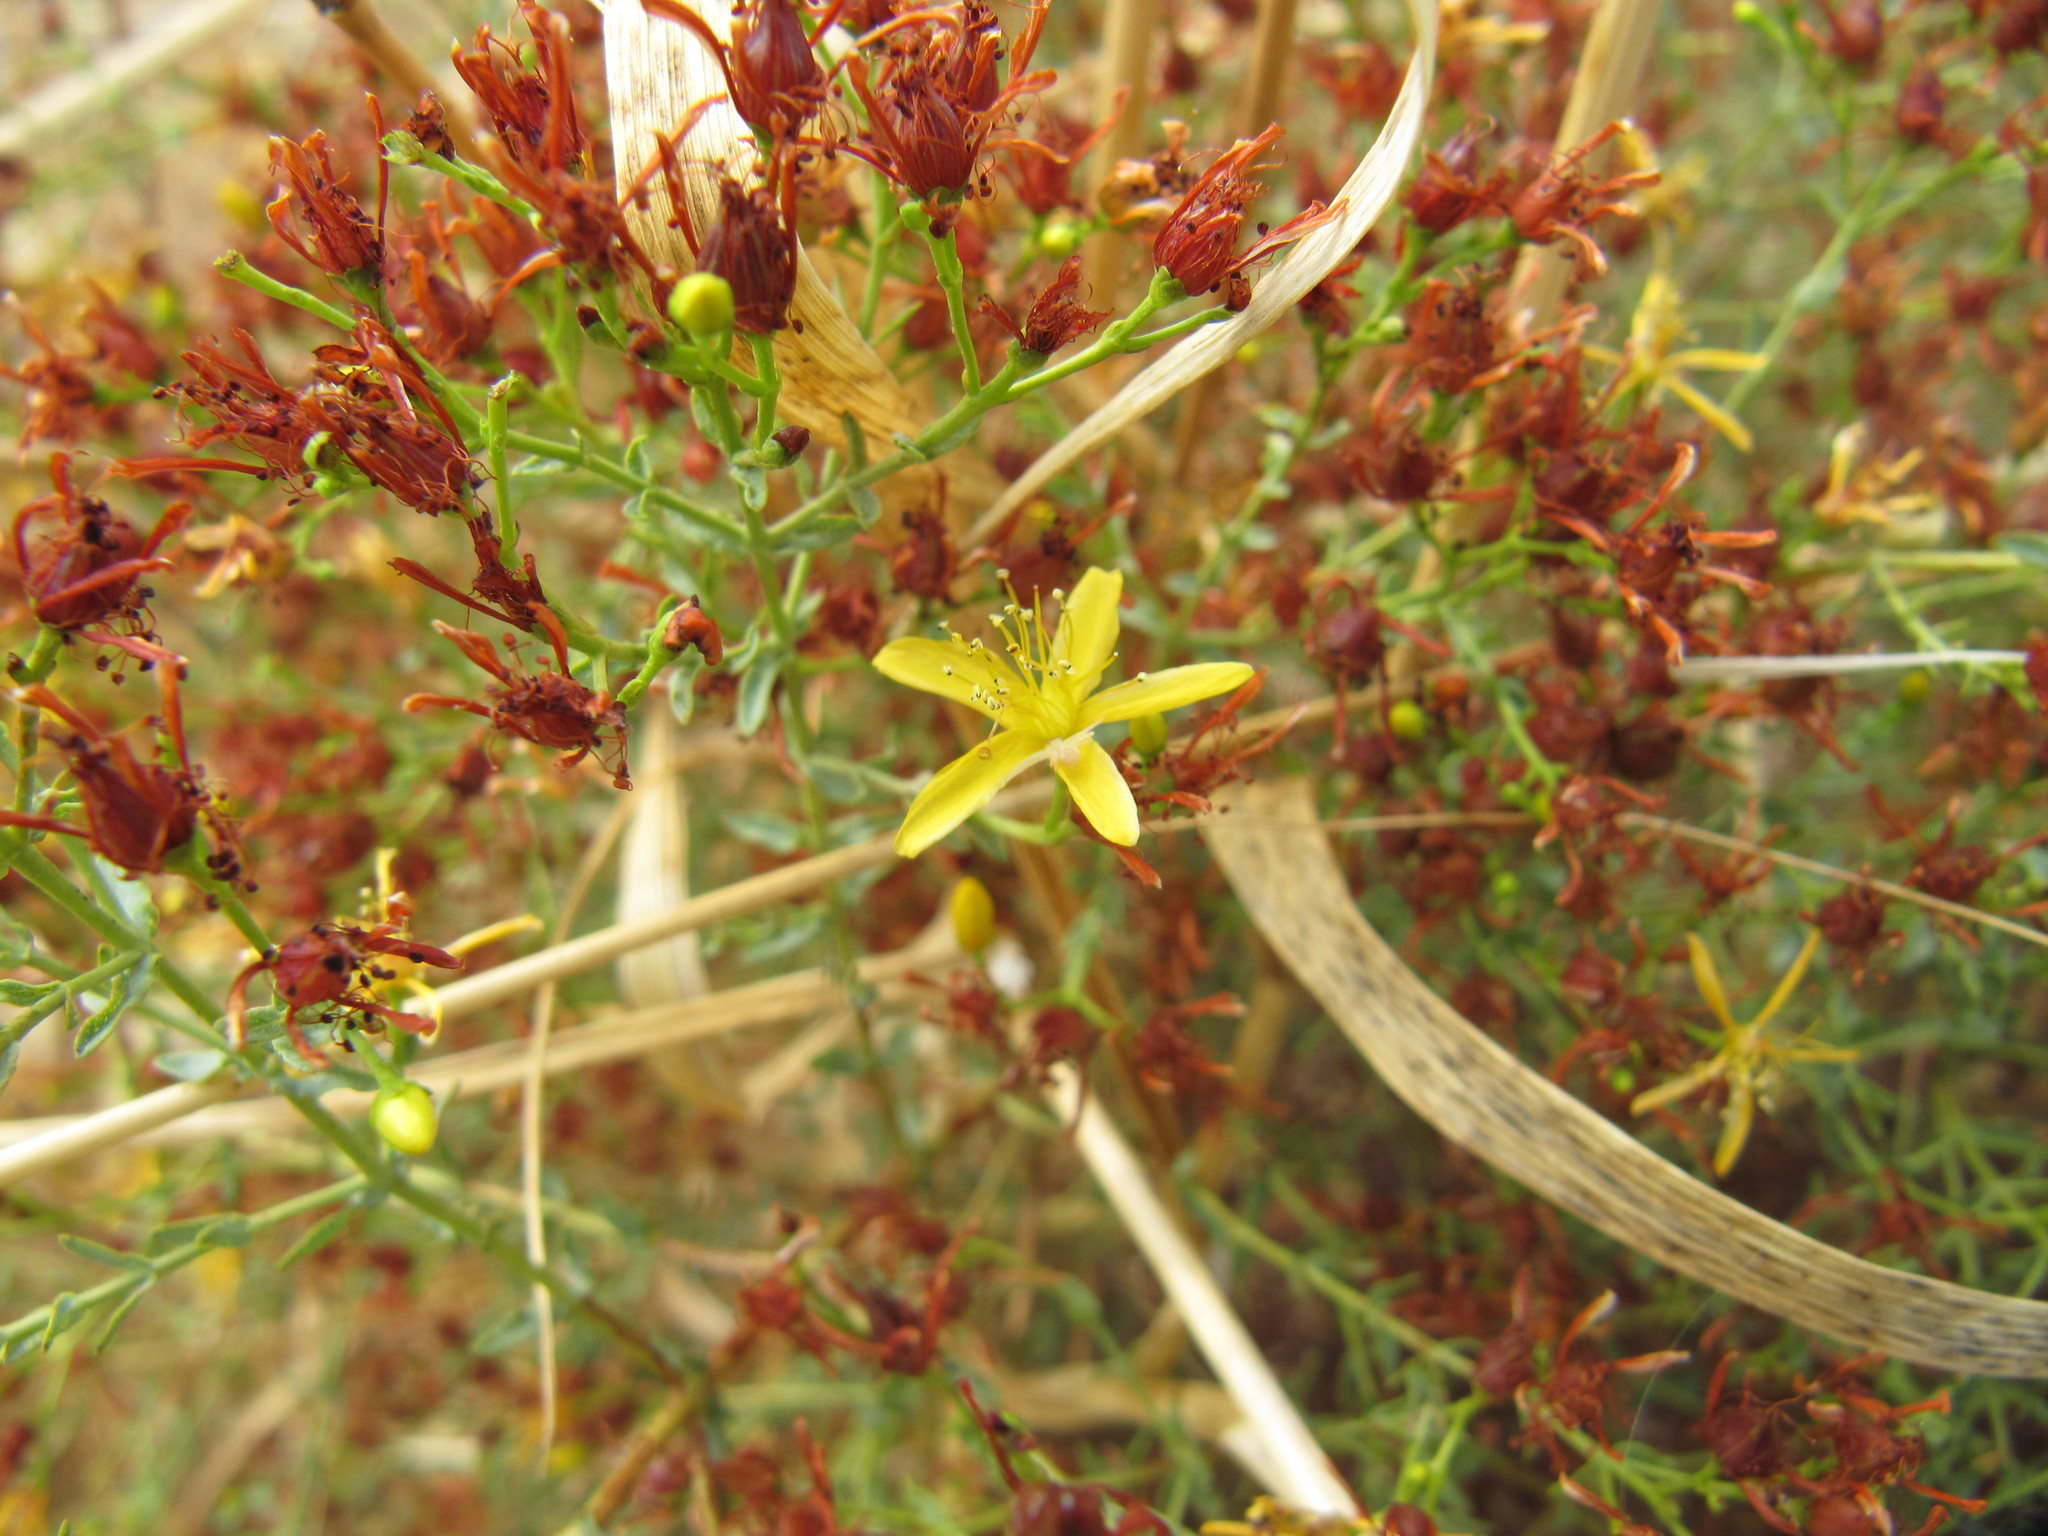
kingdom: Plantae
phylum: Tracheophyta
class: Magnoliopsida
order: Malpighiales
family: Hypericaceae
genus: Hypericum
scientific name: Hypericum triquetrifolium
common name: Tangled hypericum
